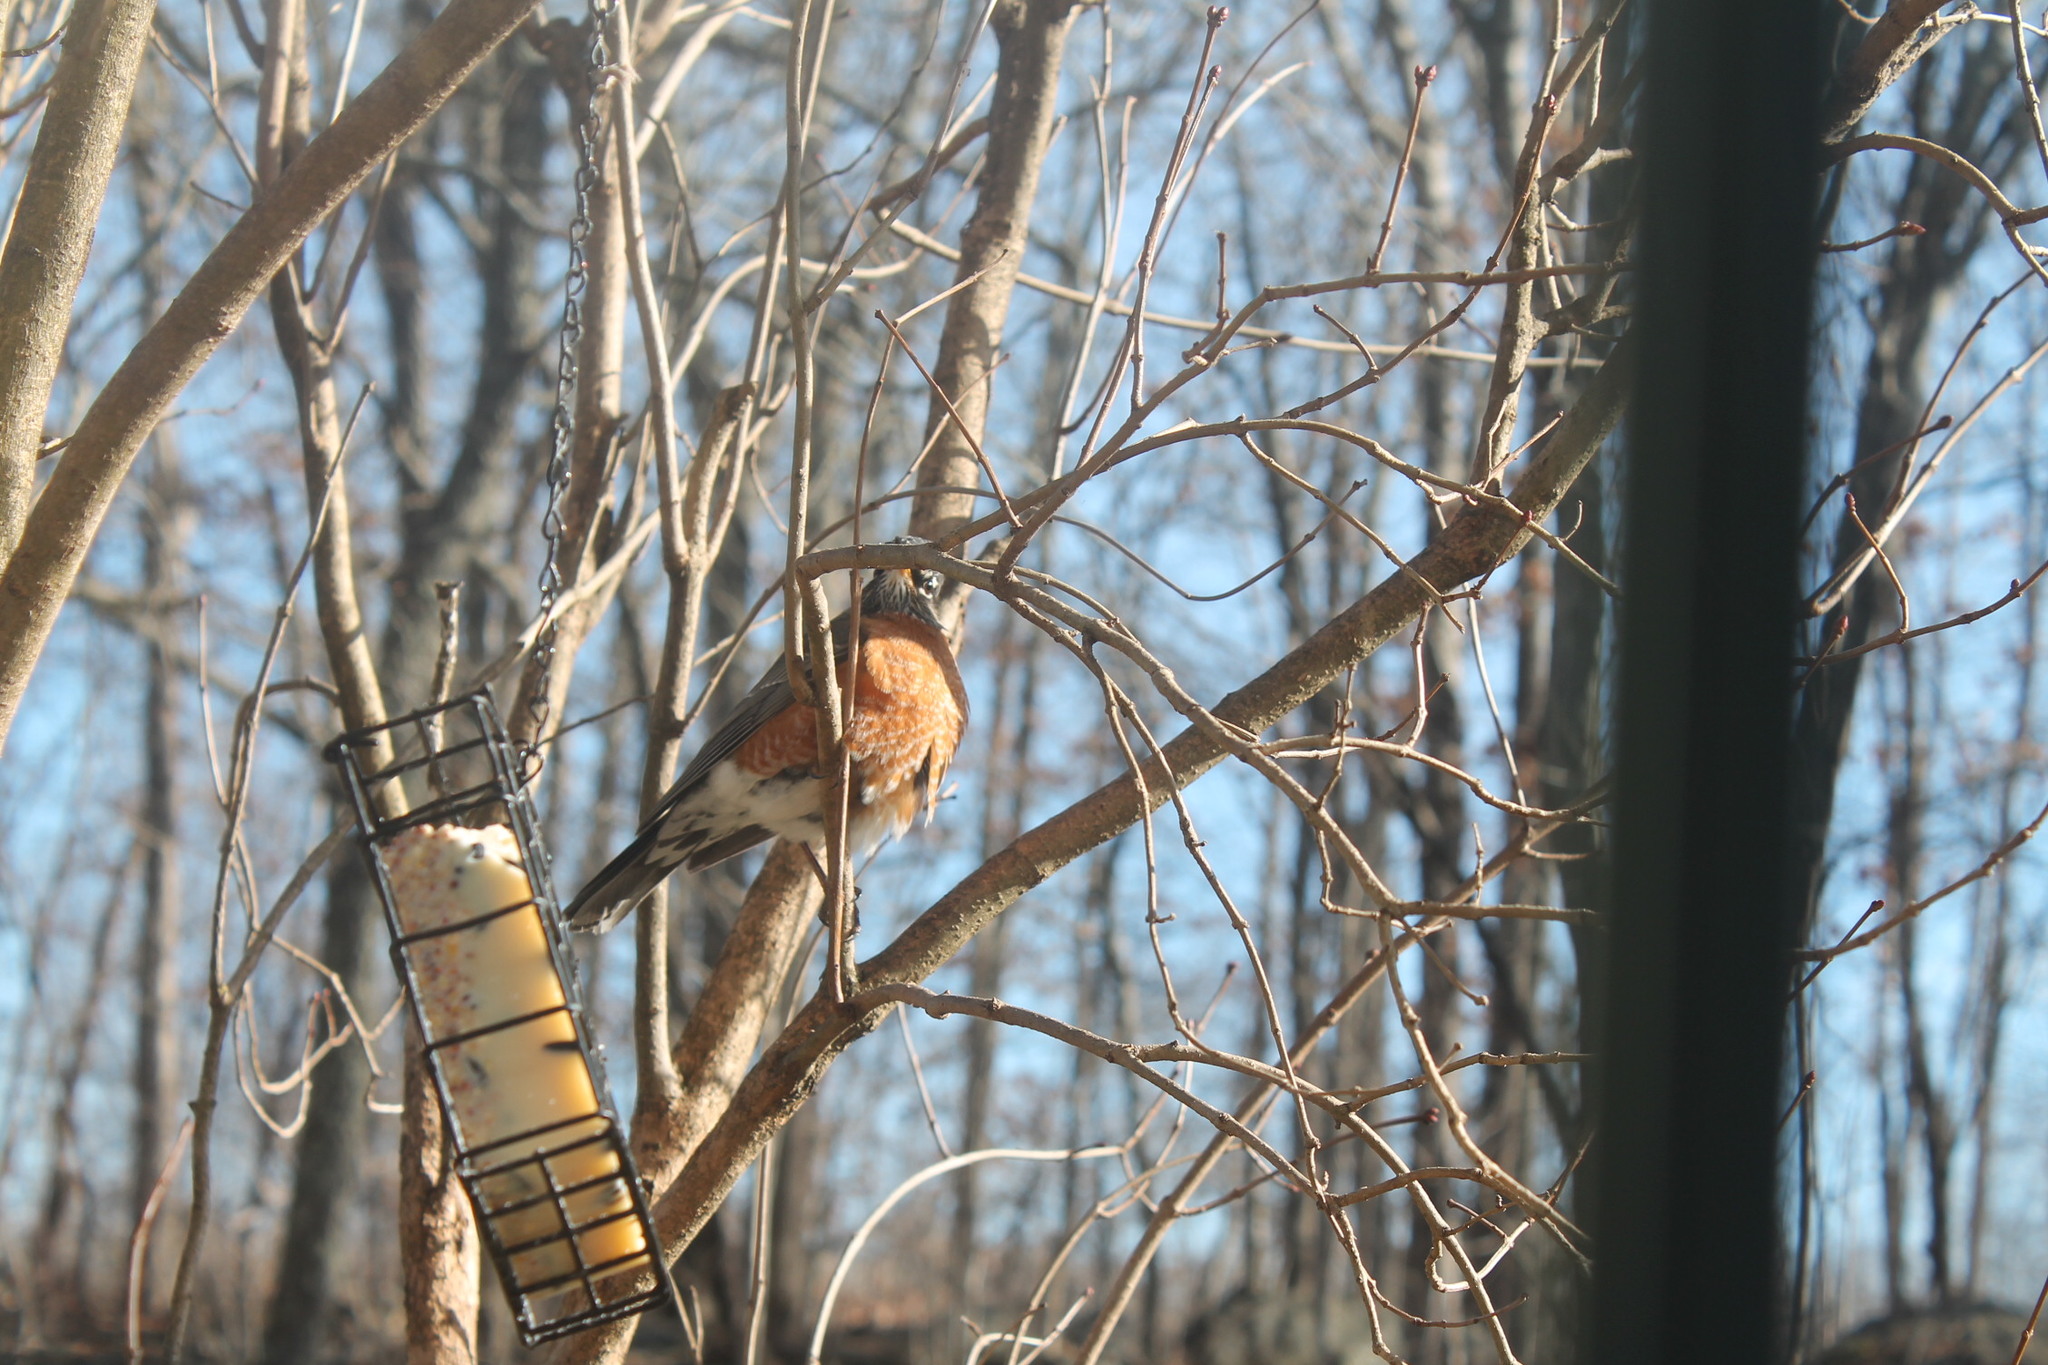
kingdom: Animalia
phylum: Chordata
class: Aves
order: Passeriformes
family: Turdidae
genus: Turdus
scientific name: Turdus migratorius
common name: American robin
